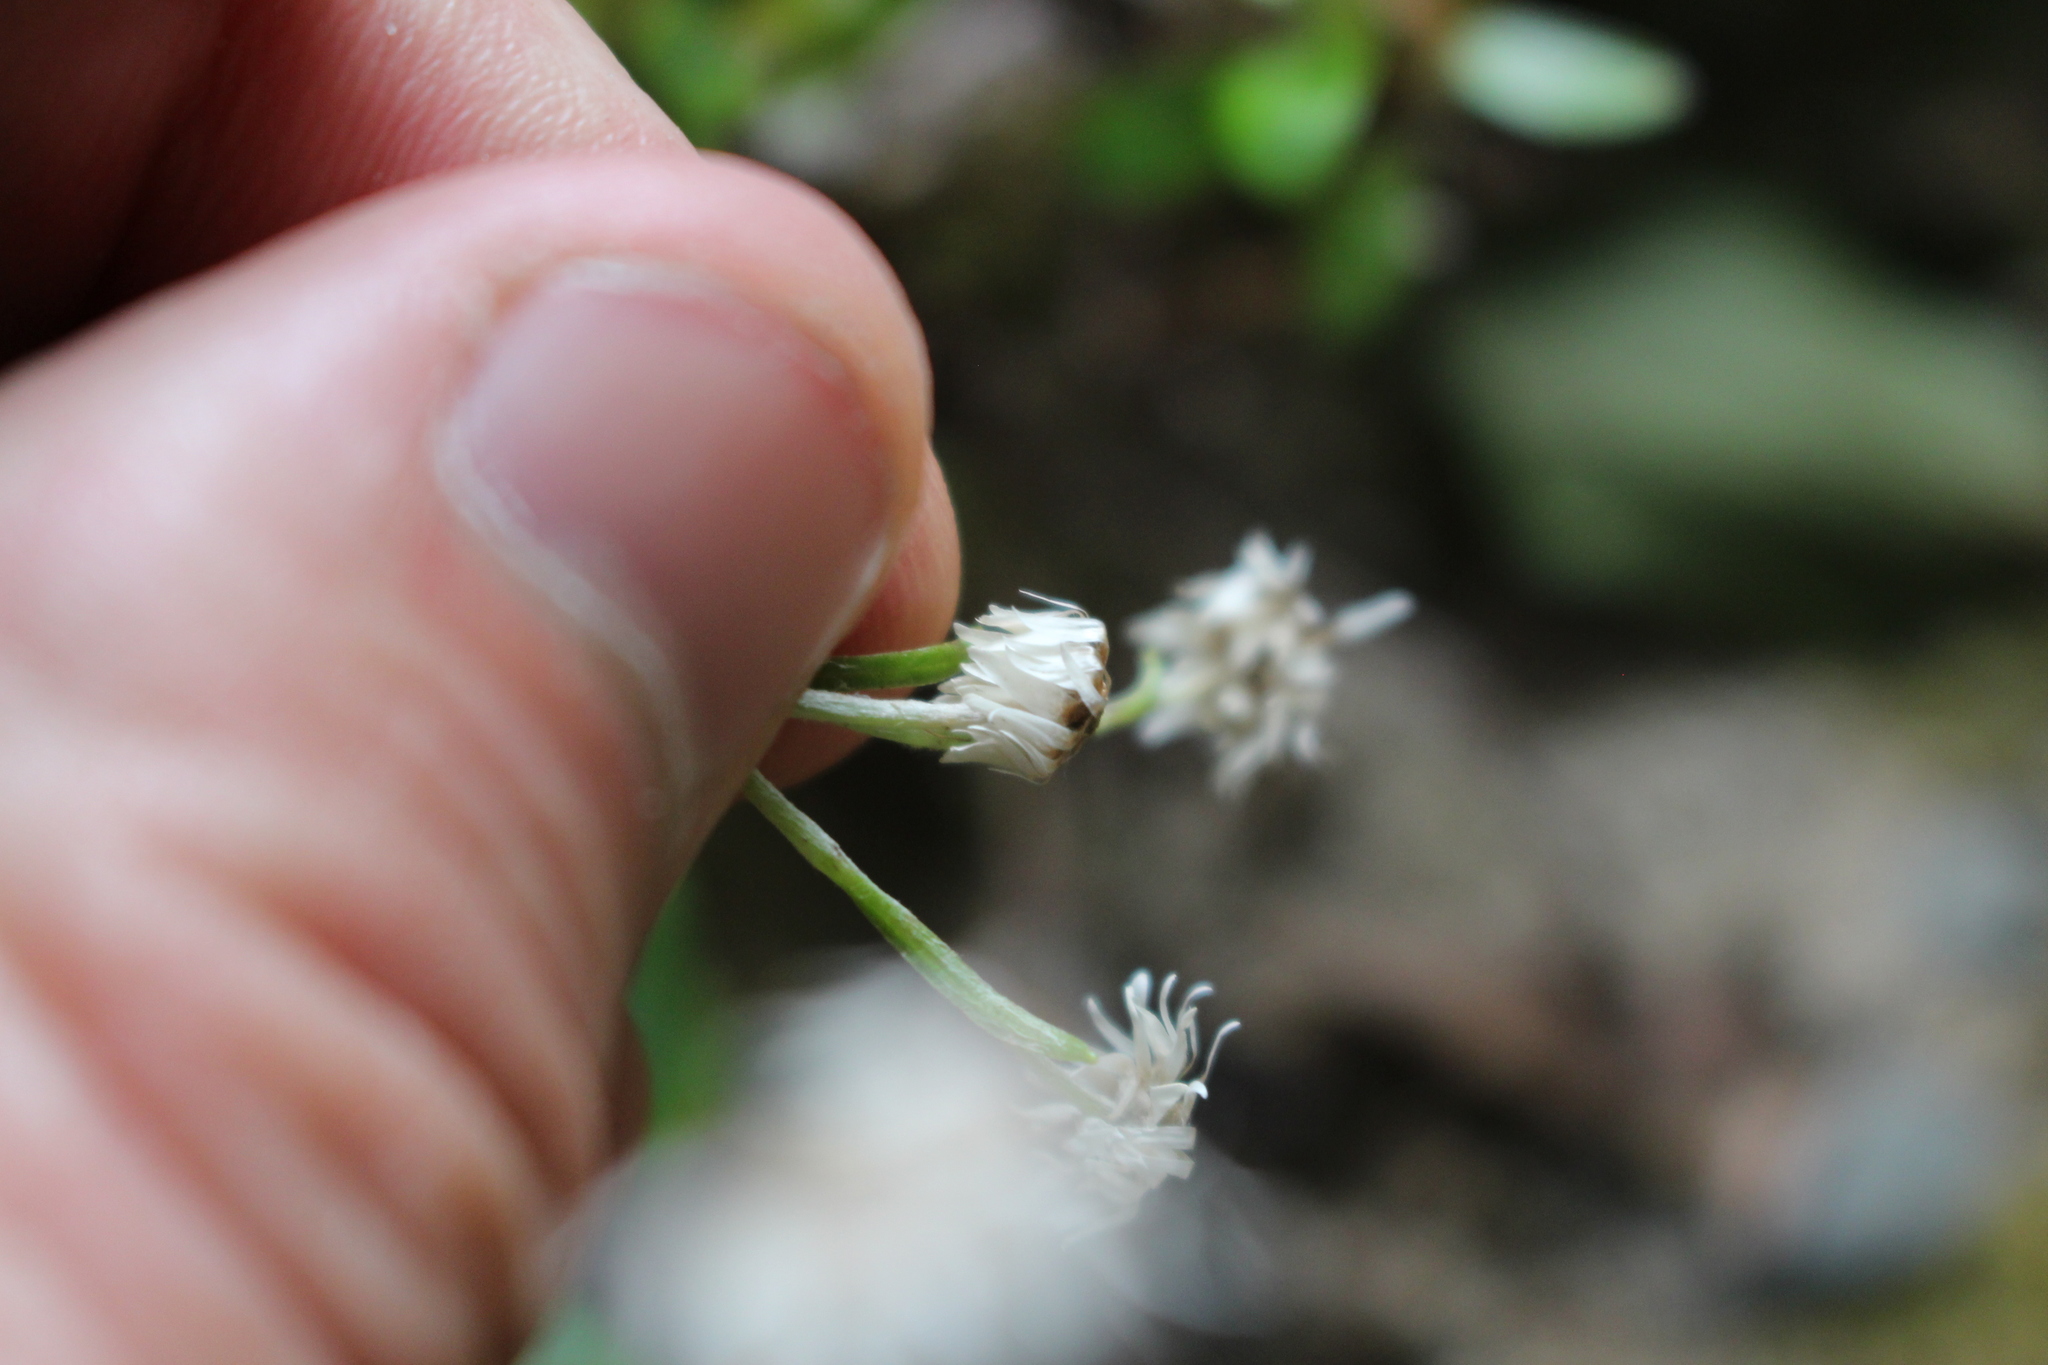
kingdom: Plantae
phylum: Tracheophyta
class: Magnoliopsida
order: Asterales
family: Asteraceae
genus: Anaphalioides
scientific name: Anaphalioides trinervis
